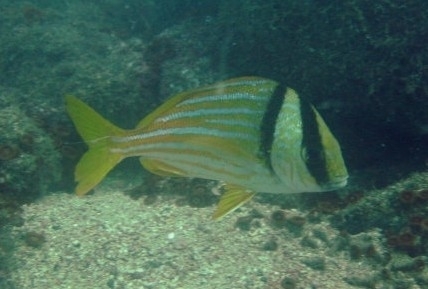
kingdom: Animalia
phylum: Chordata
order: Perciformes
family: Haemulidae
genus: Anisotremus
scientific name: Anisotremus virginicus
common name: Porkfish
